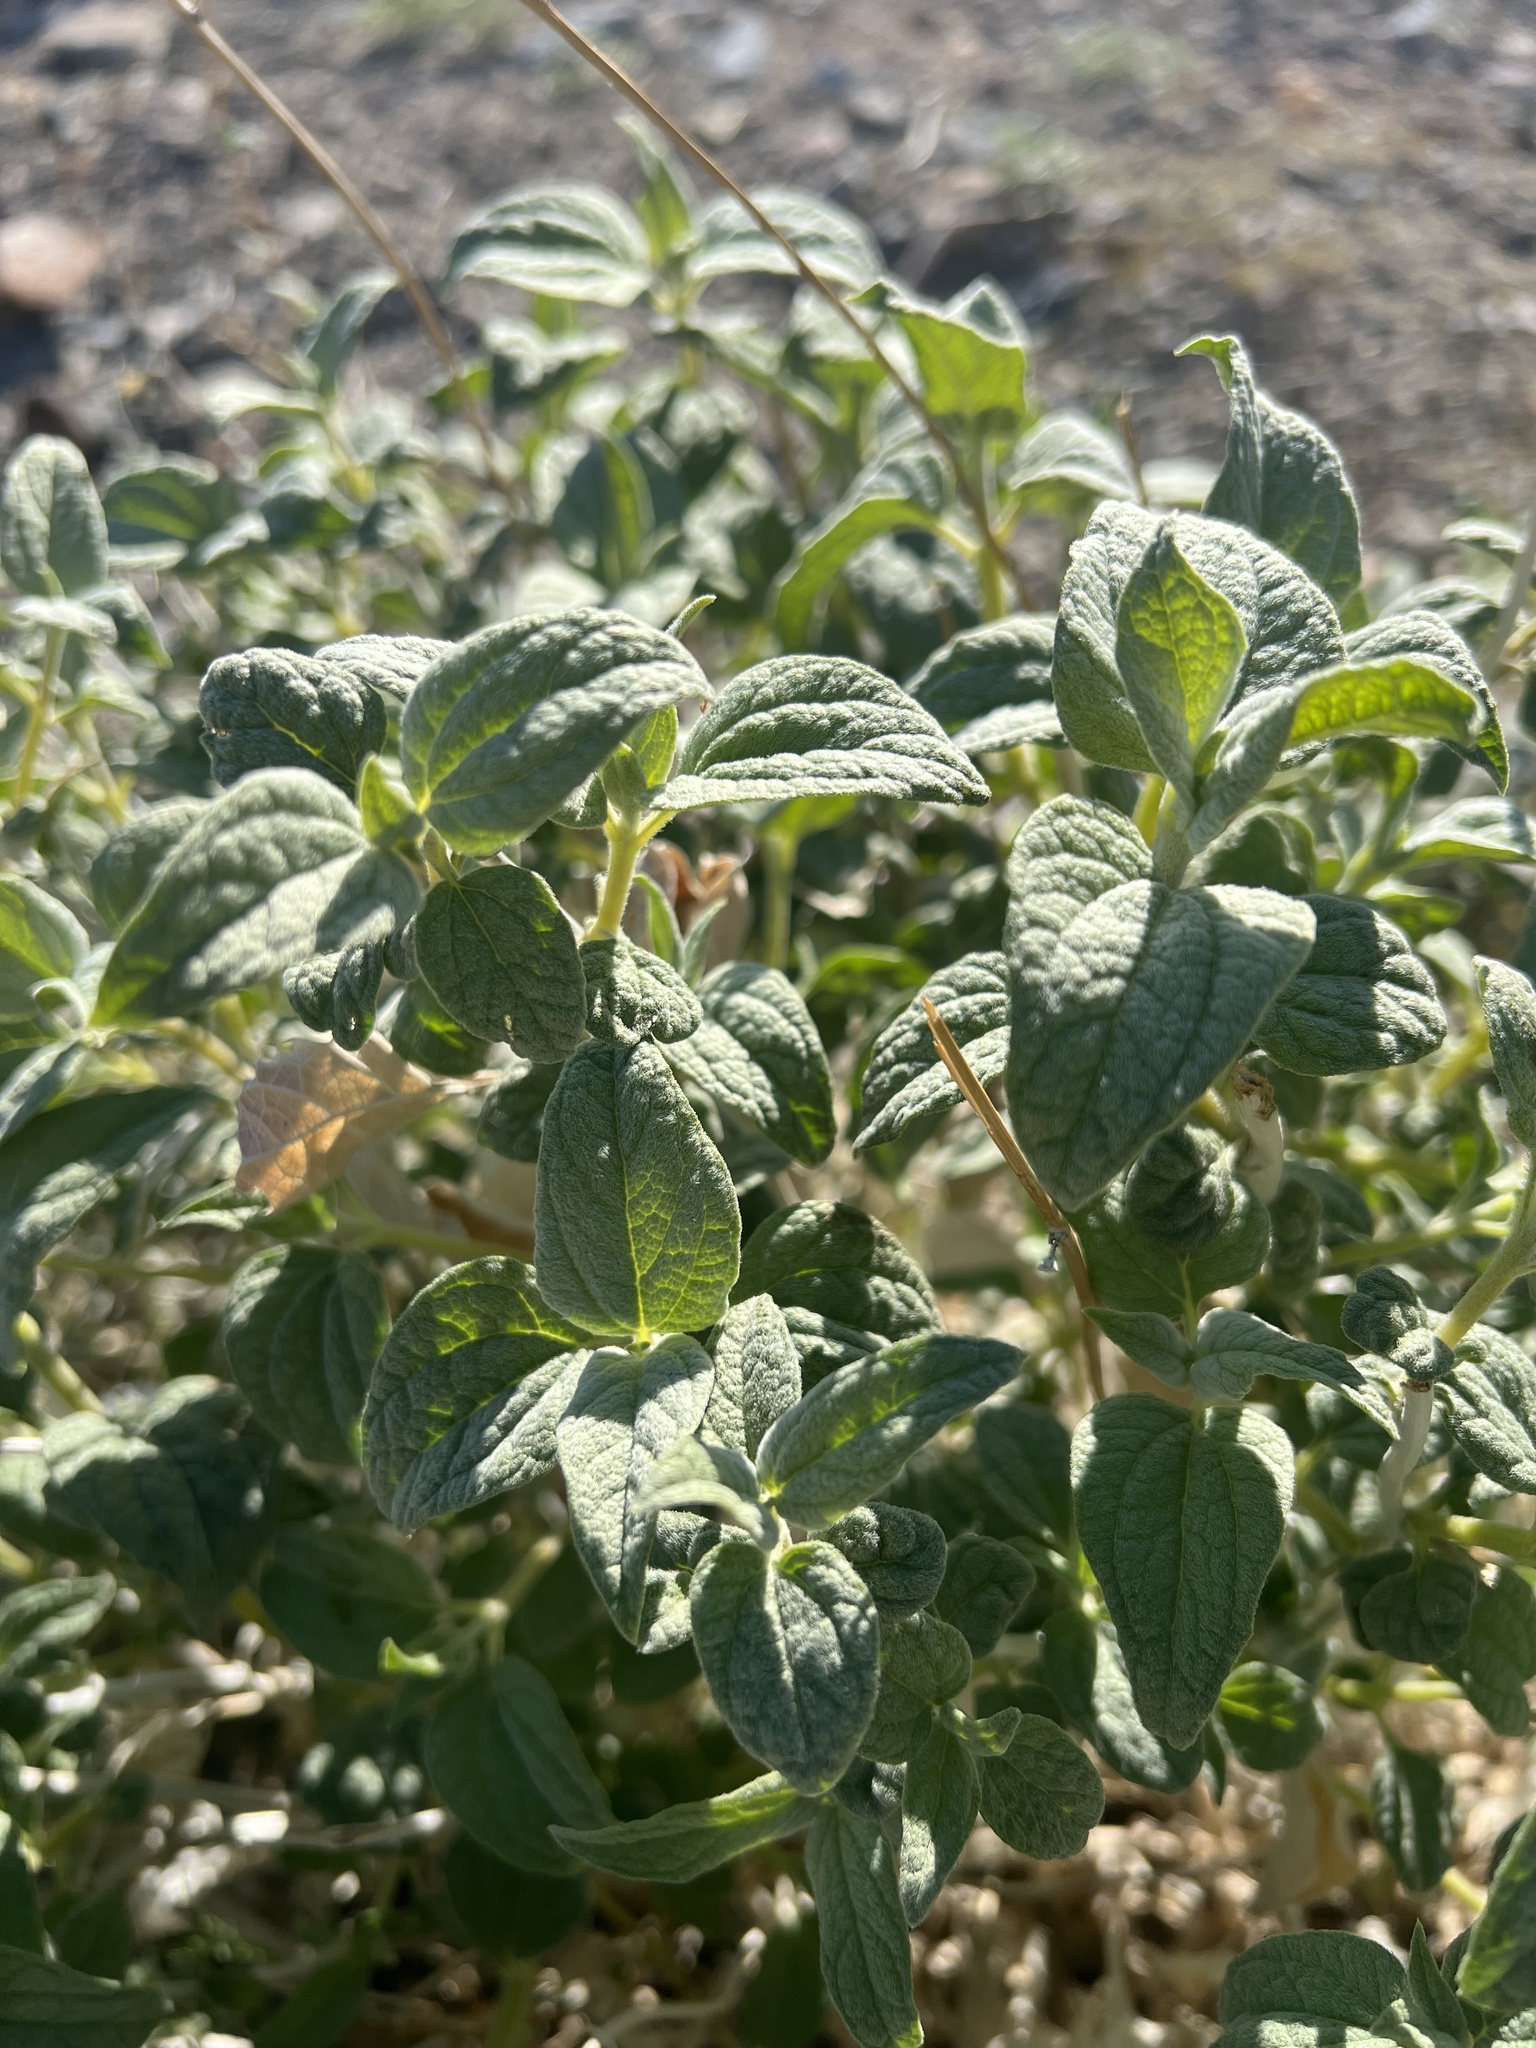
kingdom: Plantae
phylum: Tracheophyta
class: Magnoliopsida
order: Asterales
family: Asteraceae
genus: Bahiopsis
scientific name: Bahiopsis reticulata
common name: Death valley goldeneye
